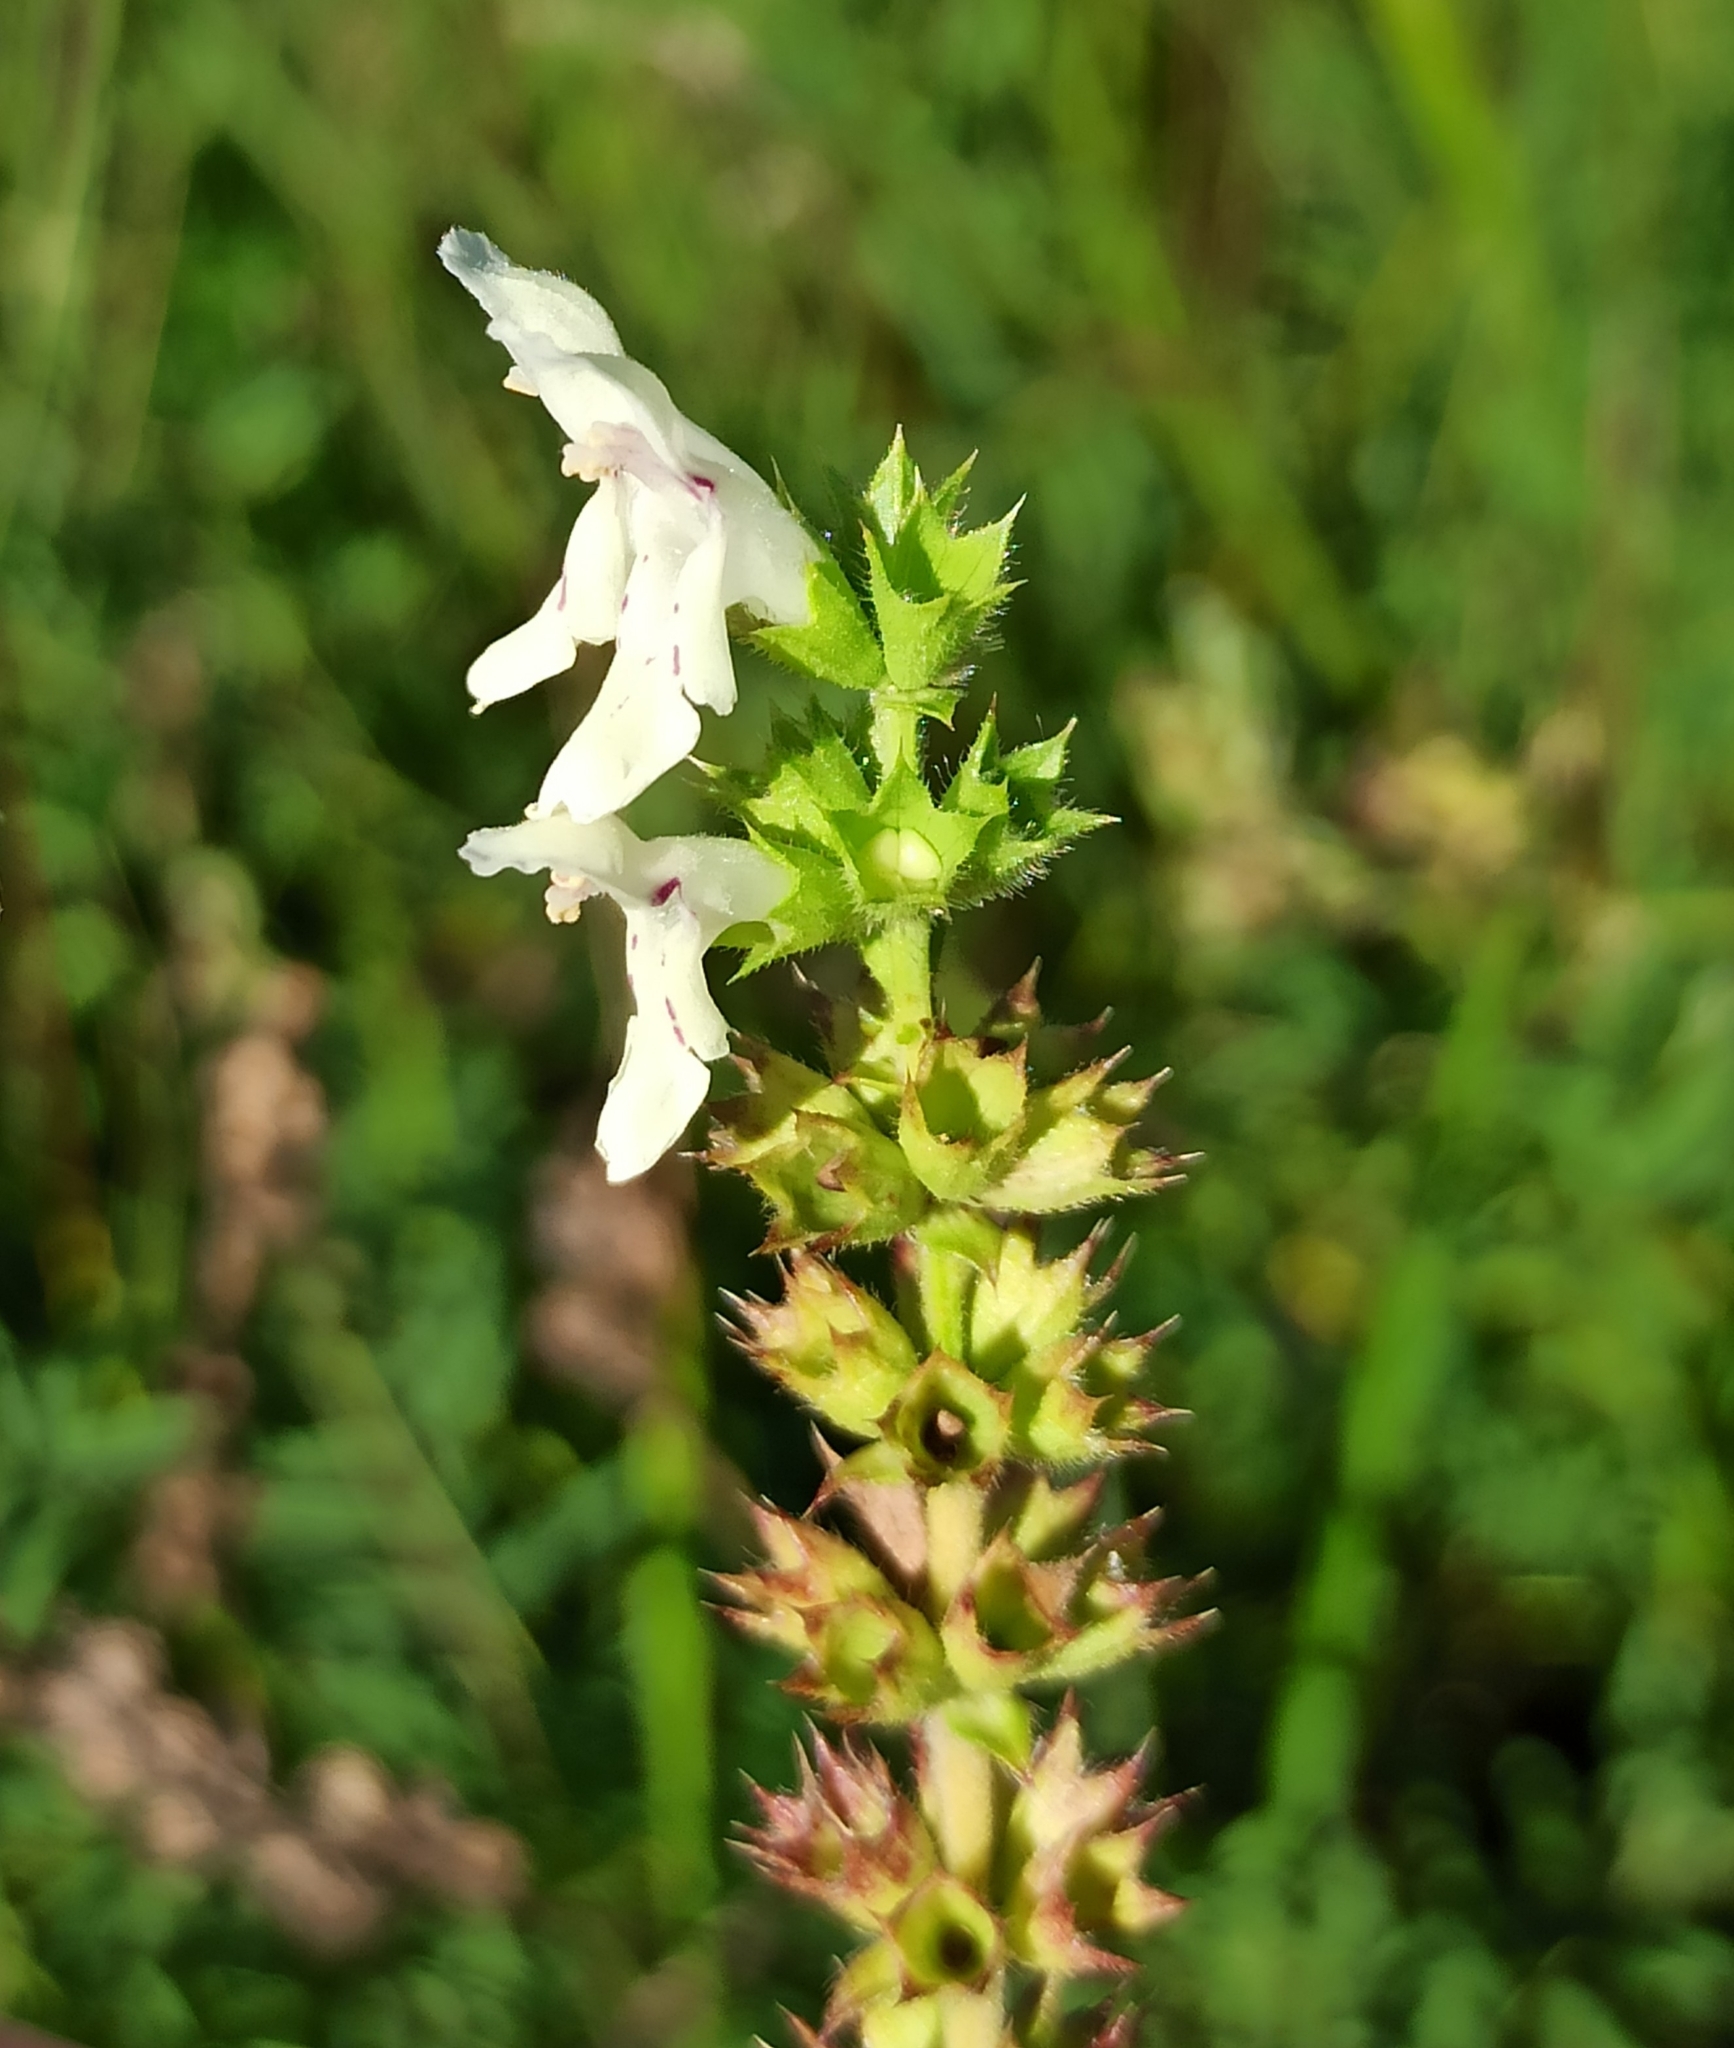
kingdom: Plantae
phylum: Tracheophyta
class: Magnoliopsida
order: Lamiales
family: Lamiaceae
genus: Stachys
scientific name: Stachys recta
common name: Perennial yellow-woundwort
